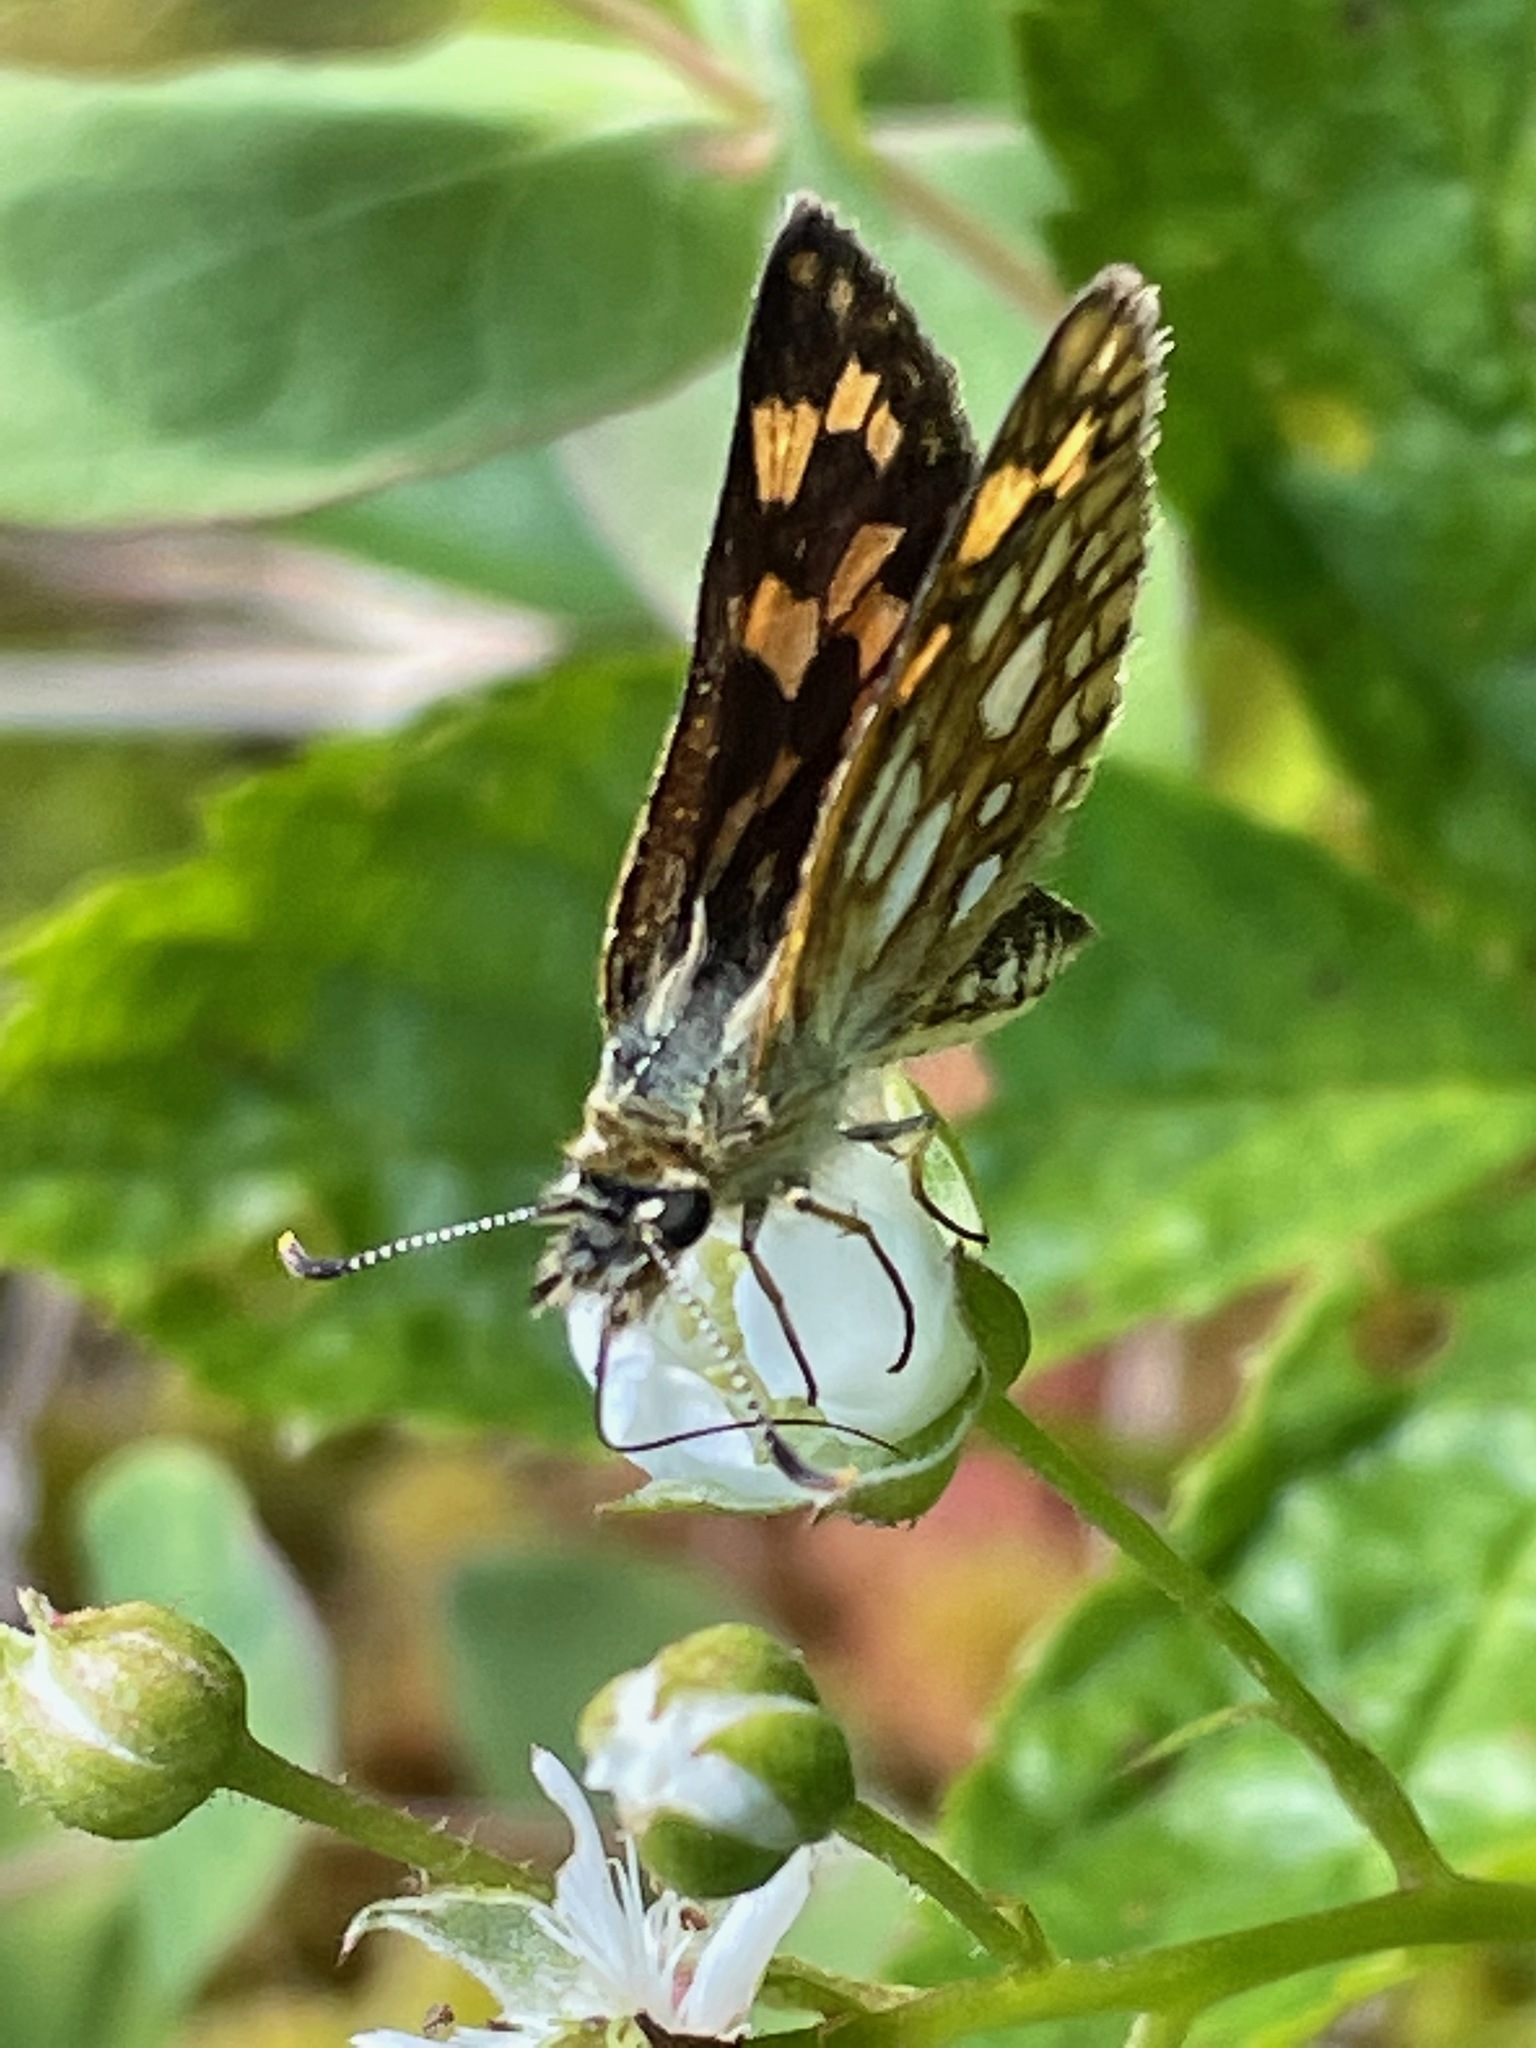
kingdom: Animalia
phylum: Arthropoda
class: Insecta
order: Lepidoptera
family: Hesperiidae
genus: Carterocephalus
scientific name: Carterocephalus mandan
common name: Arctic skipperling
